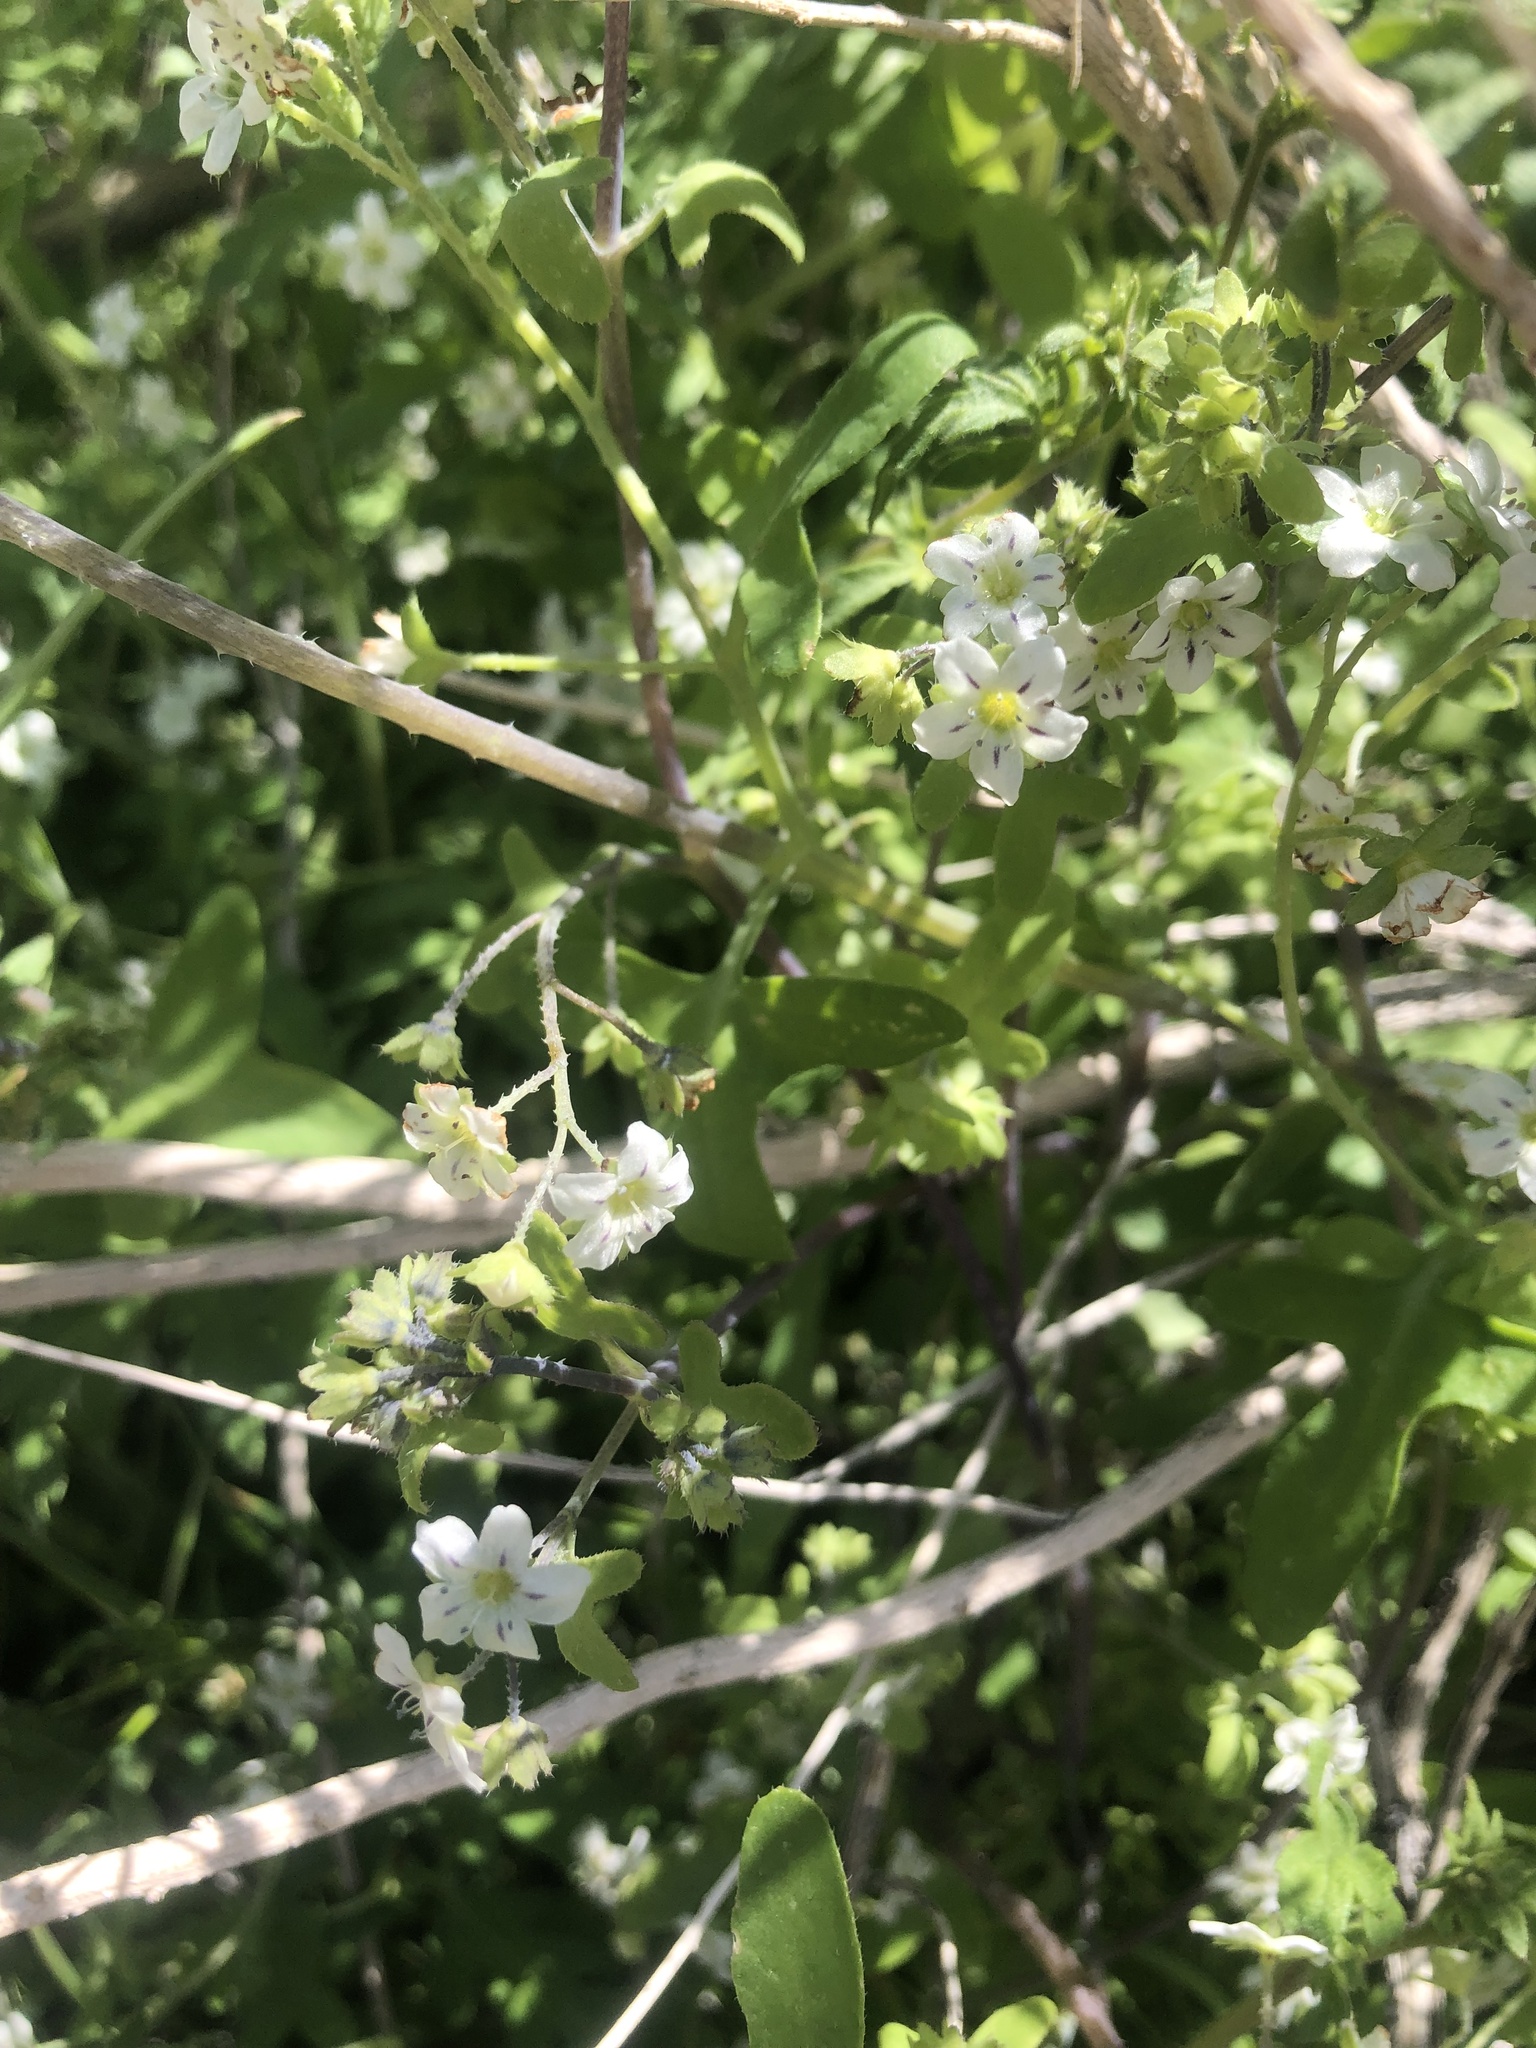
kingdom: Plantae
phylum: Tracheophyta
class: Magnoliopsida
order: Boraginales
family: Hydrophyllaceae
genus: Pholistoma
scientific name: Pholistoma membranaceum
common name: White fiesta-flower
